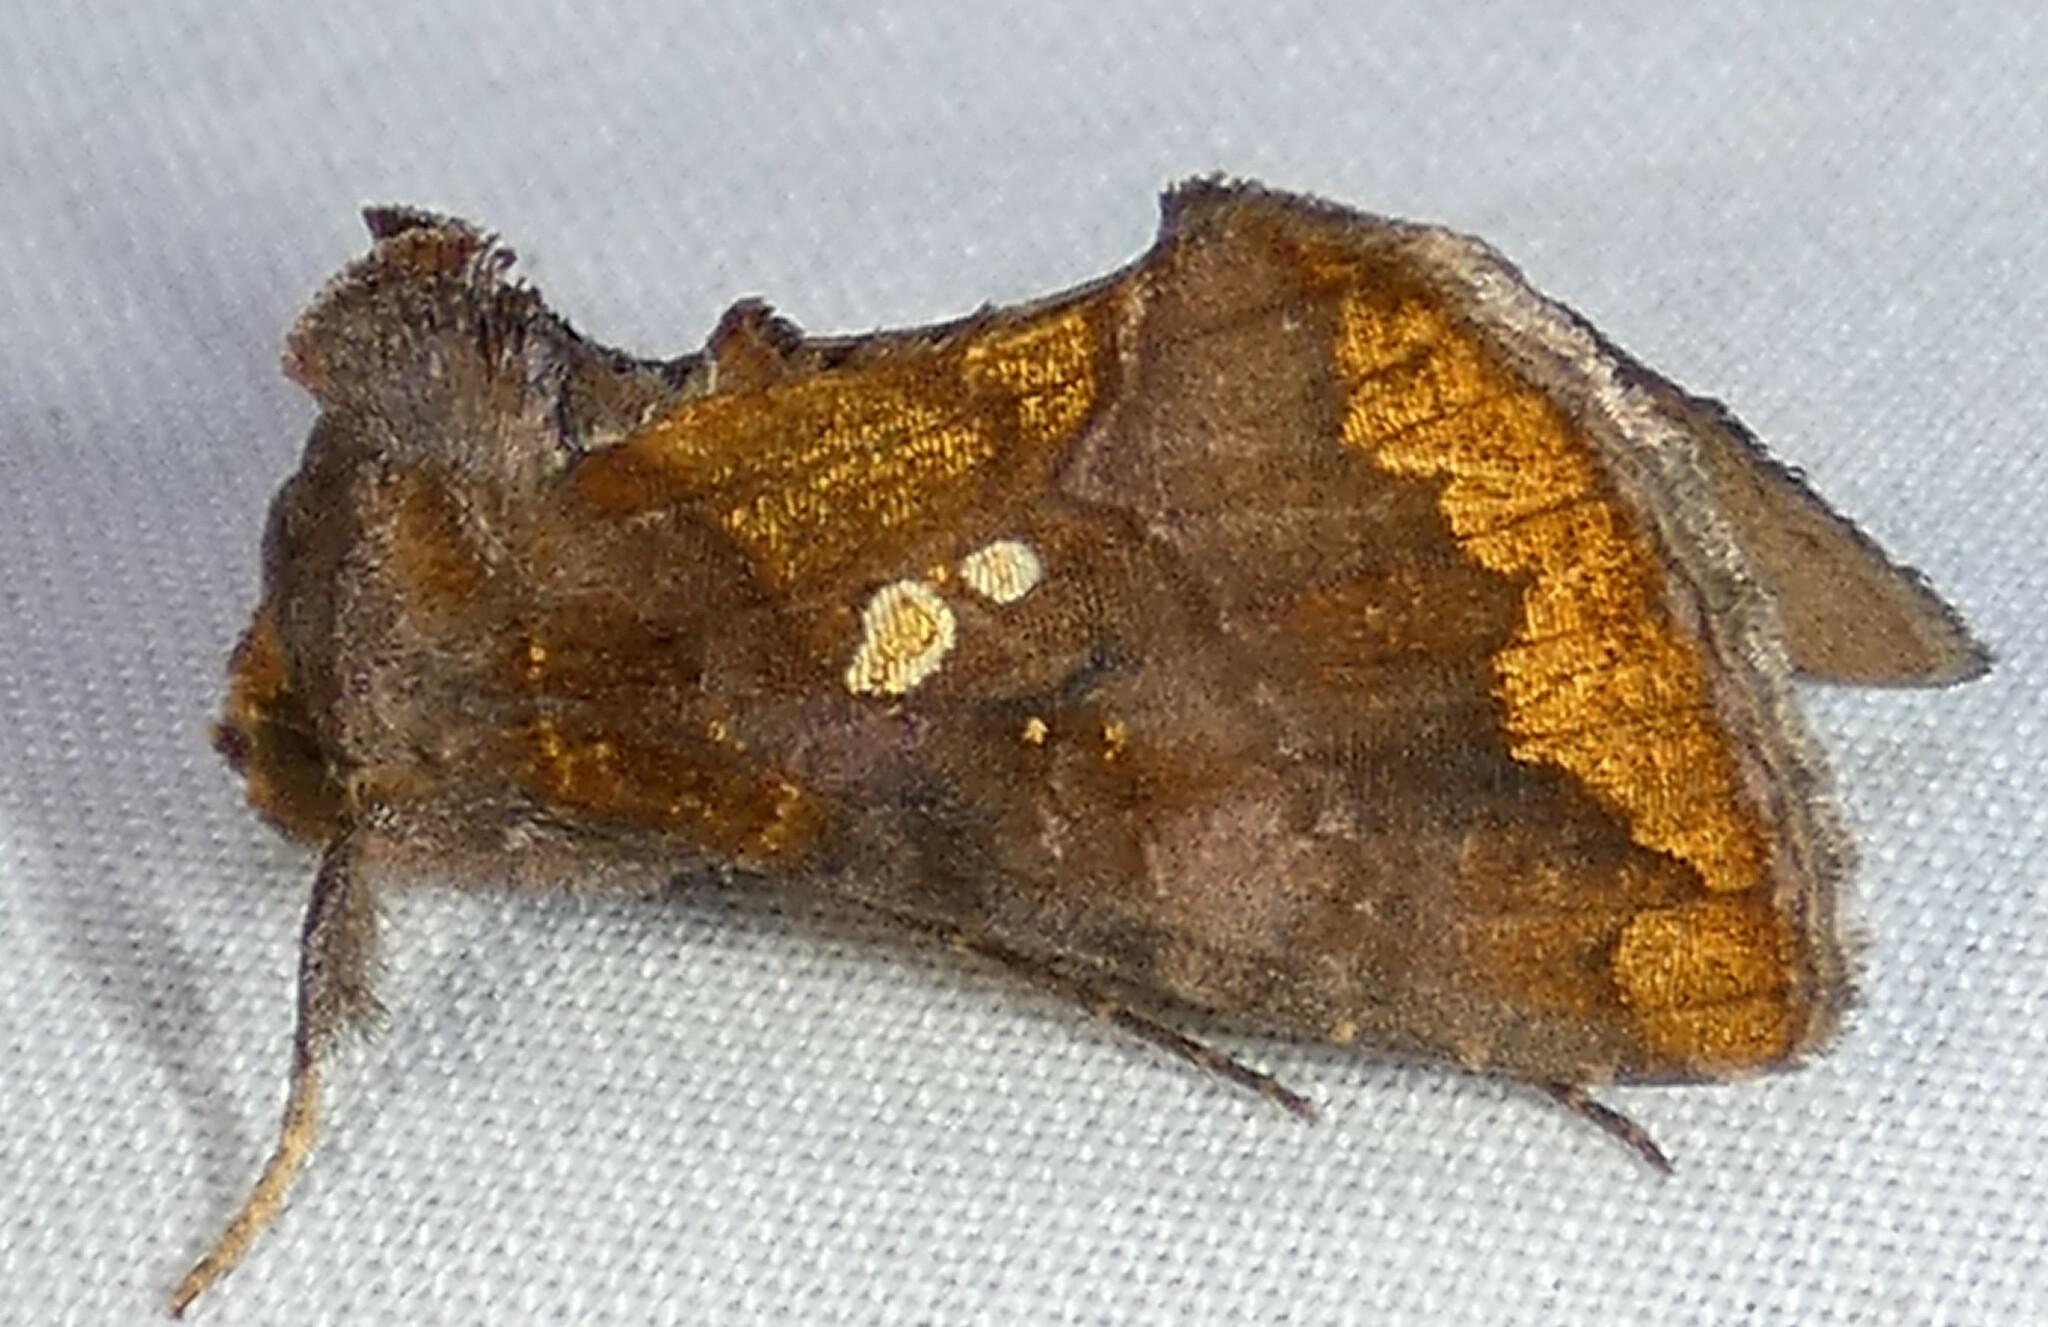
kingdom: Animalia
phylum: Arthropoda
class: Insecta
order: Lepidoptera
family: Noctuidae
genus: Argyrogramma
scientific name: Argyrogramma verruca
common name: Golden looper moth
